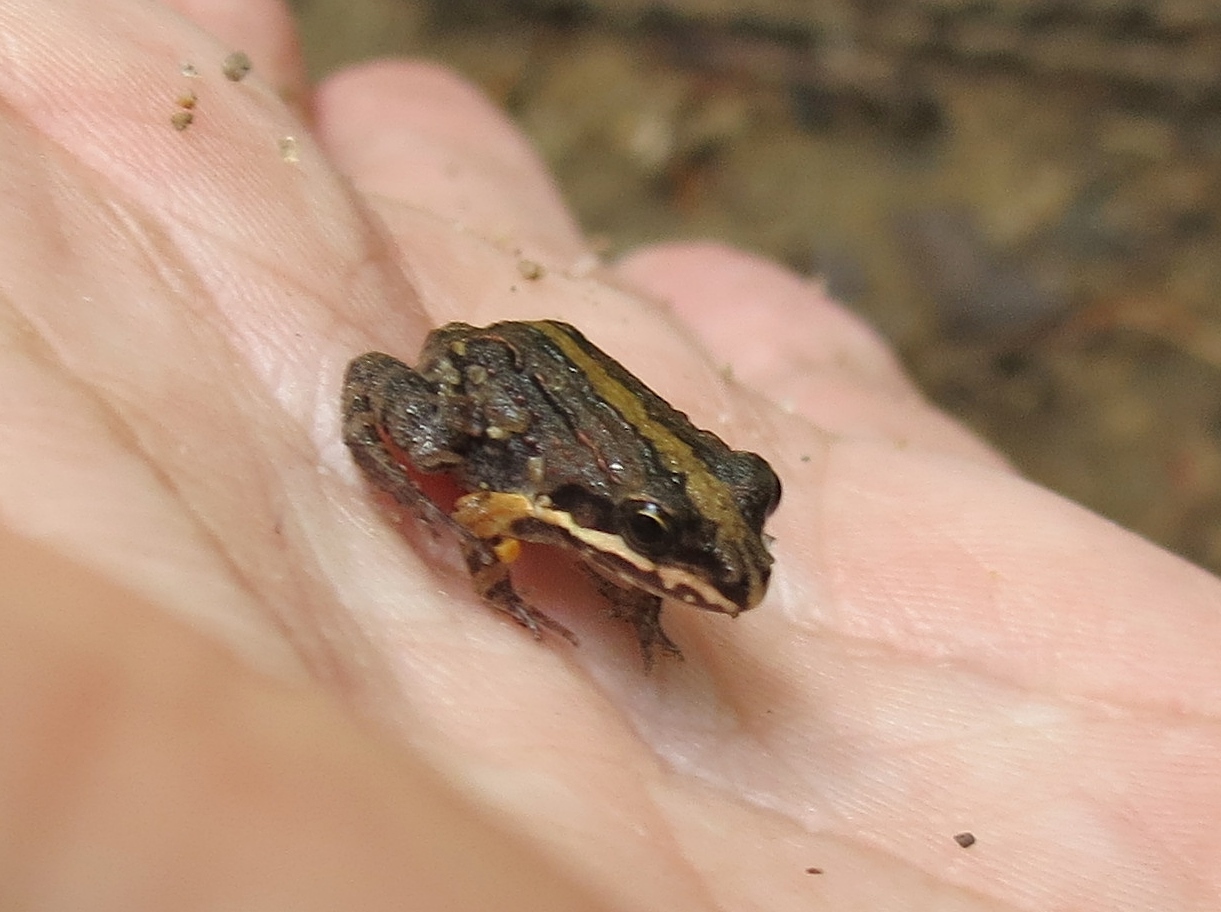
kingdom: Animalia
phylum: Chordata
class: Amphibia
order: Anura
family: Leptodactylidae
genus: Leptodactylus
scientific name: Leptodactylus albilabris
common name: Caribbean white-lipped frog
